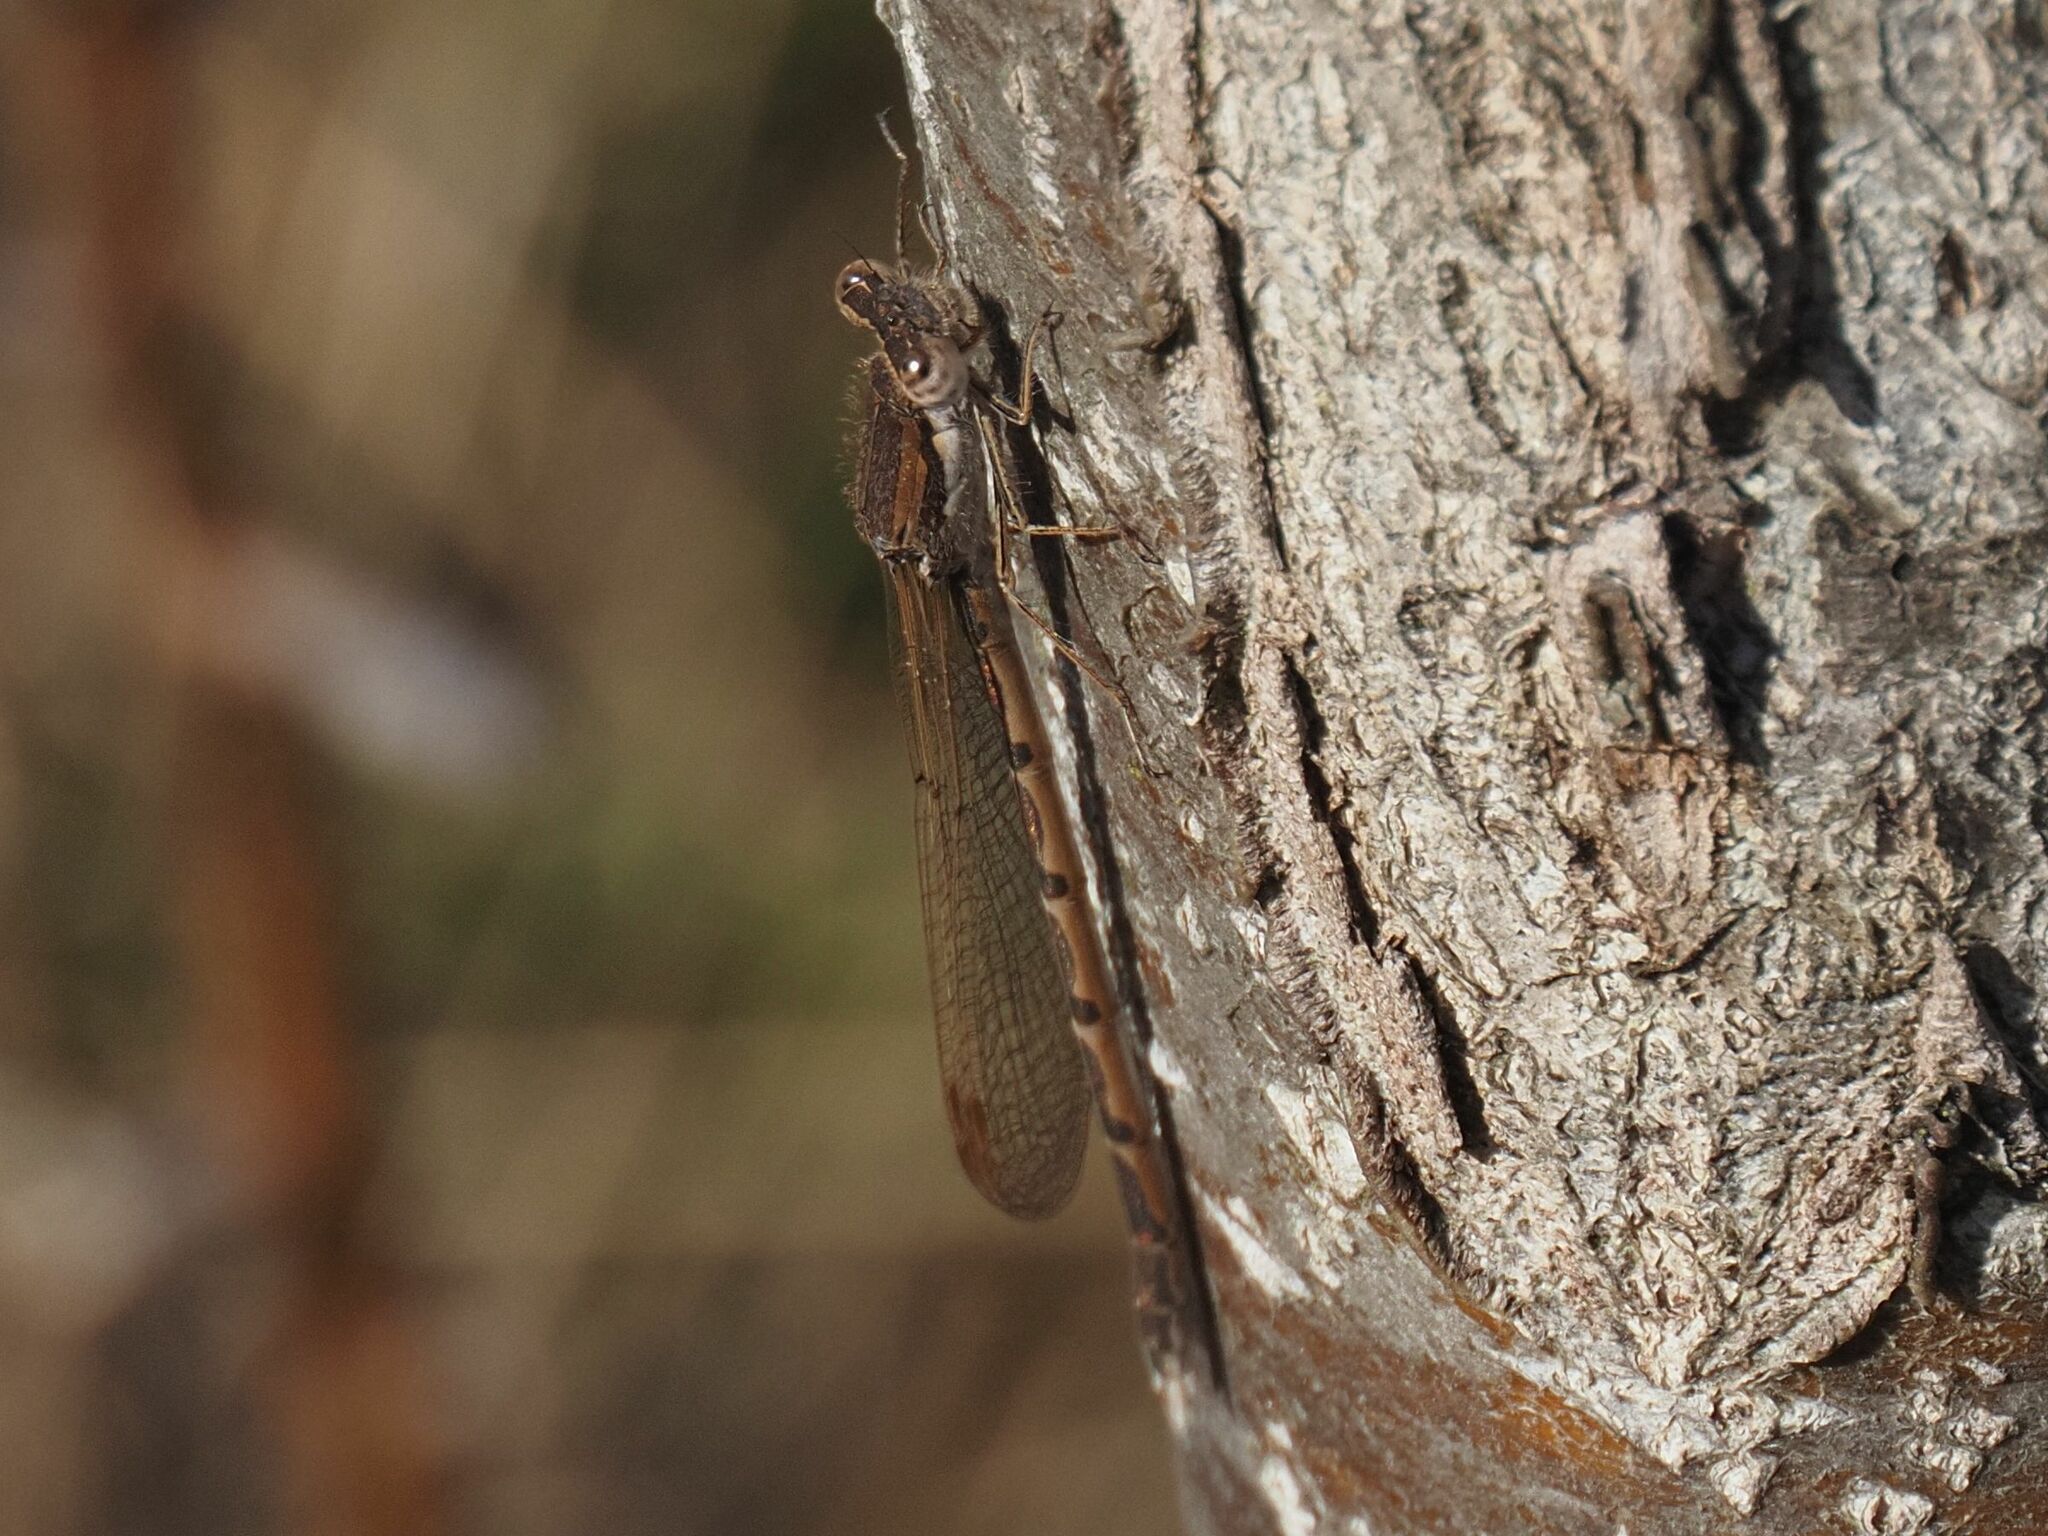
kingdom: Animalia
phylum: Arthropoda
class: Insecta
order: Odonata
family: Lestidae
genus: Sympecma
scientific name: Sympecma fusca
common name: Common winter damsel
